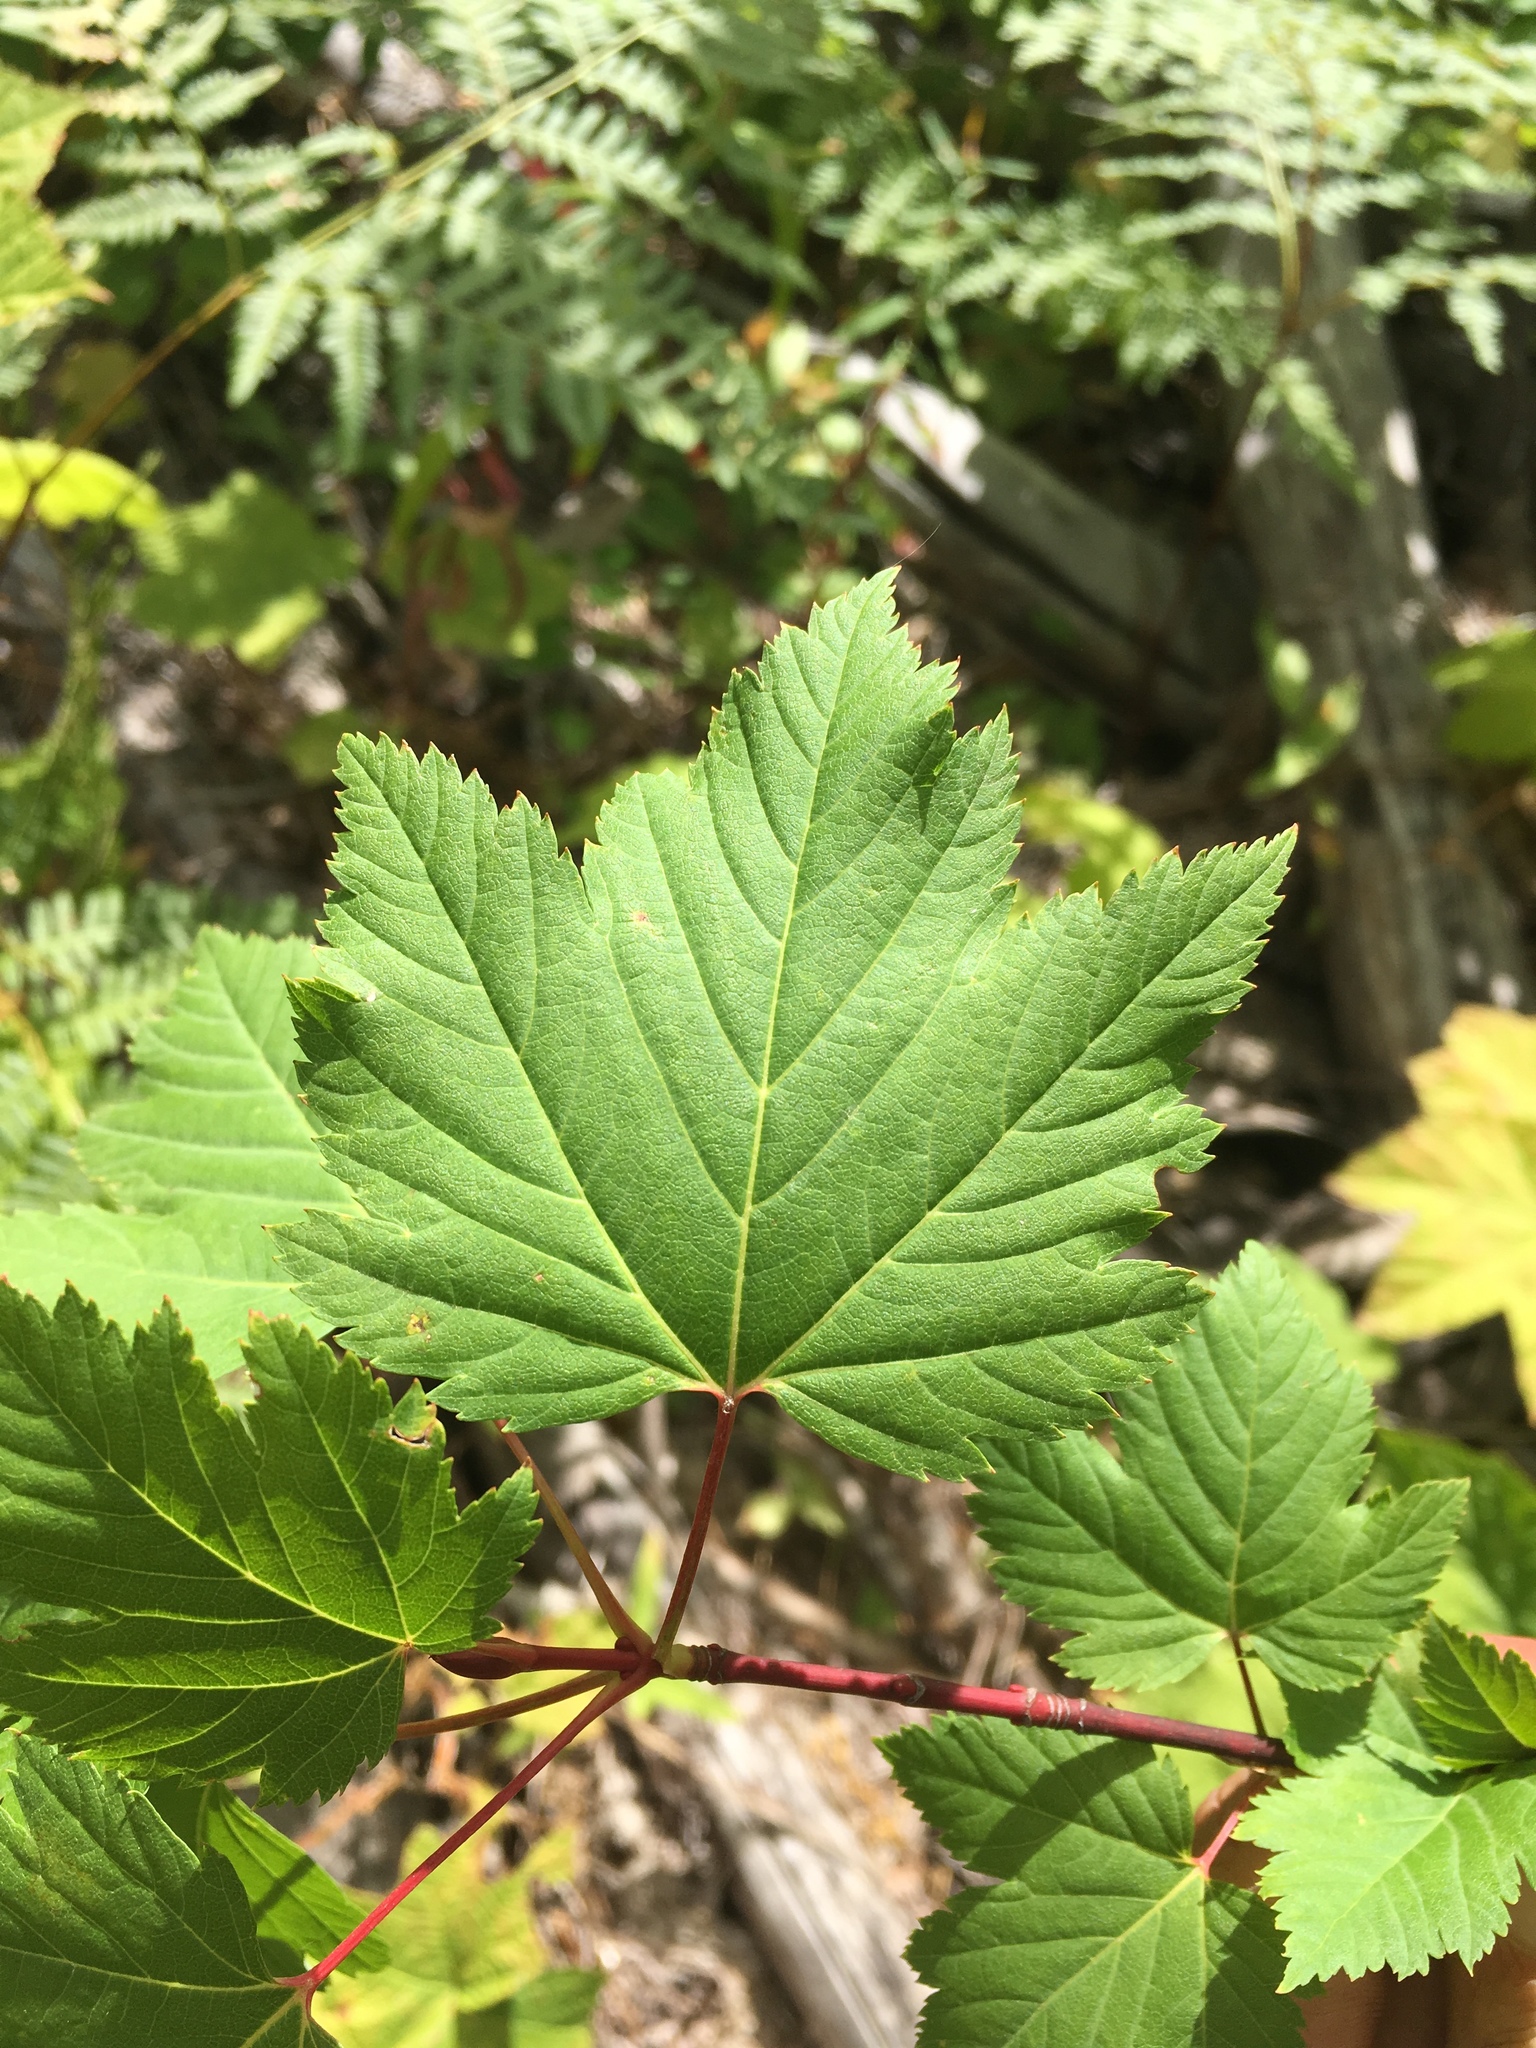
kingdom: Plantae
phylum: Tracheophyta
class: Magnoliopsida
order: Sapindales
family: Sapindaceae
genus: Acer
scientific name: Acer glabrum
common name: Rocky mountain maple
